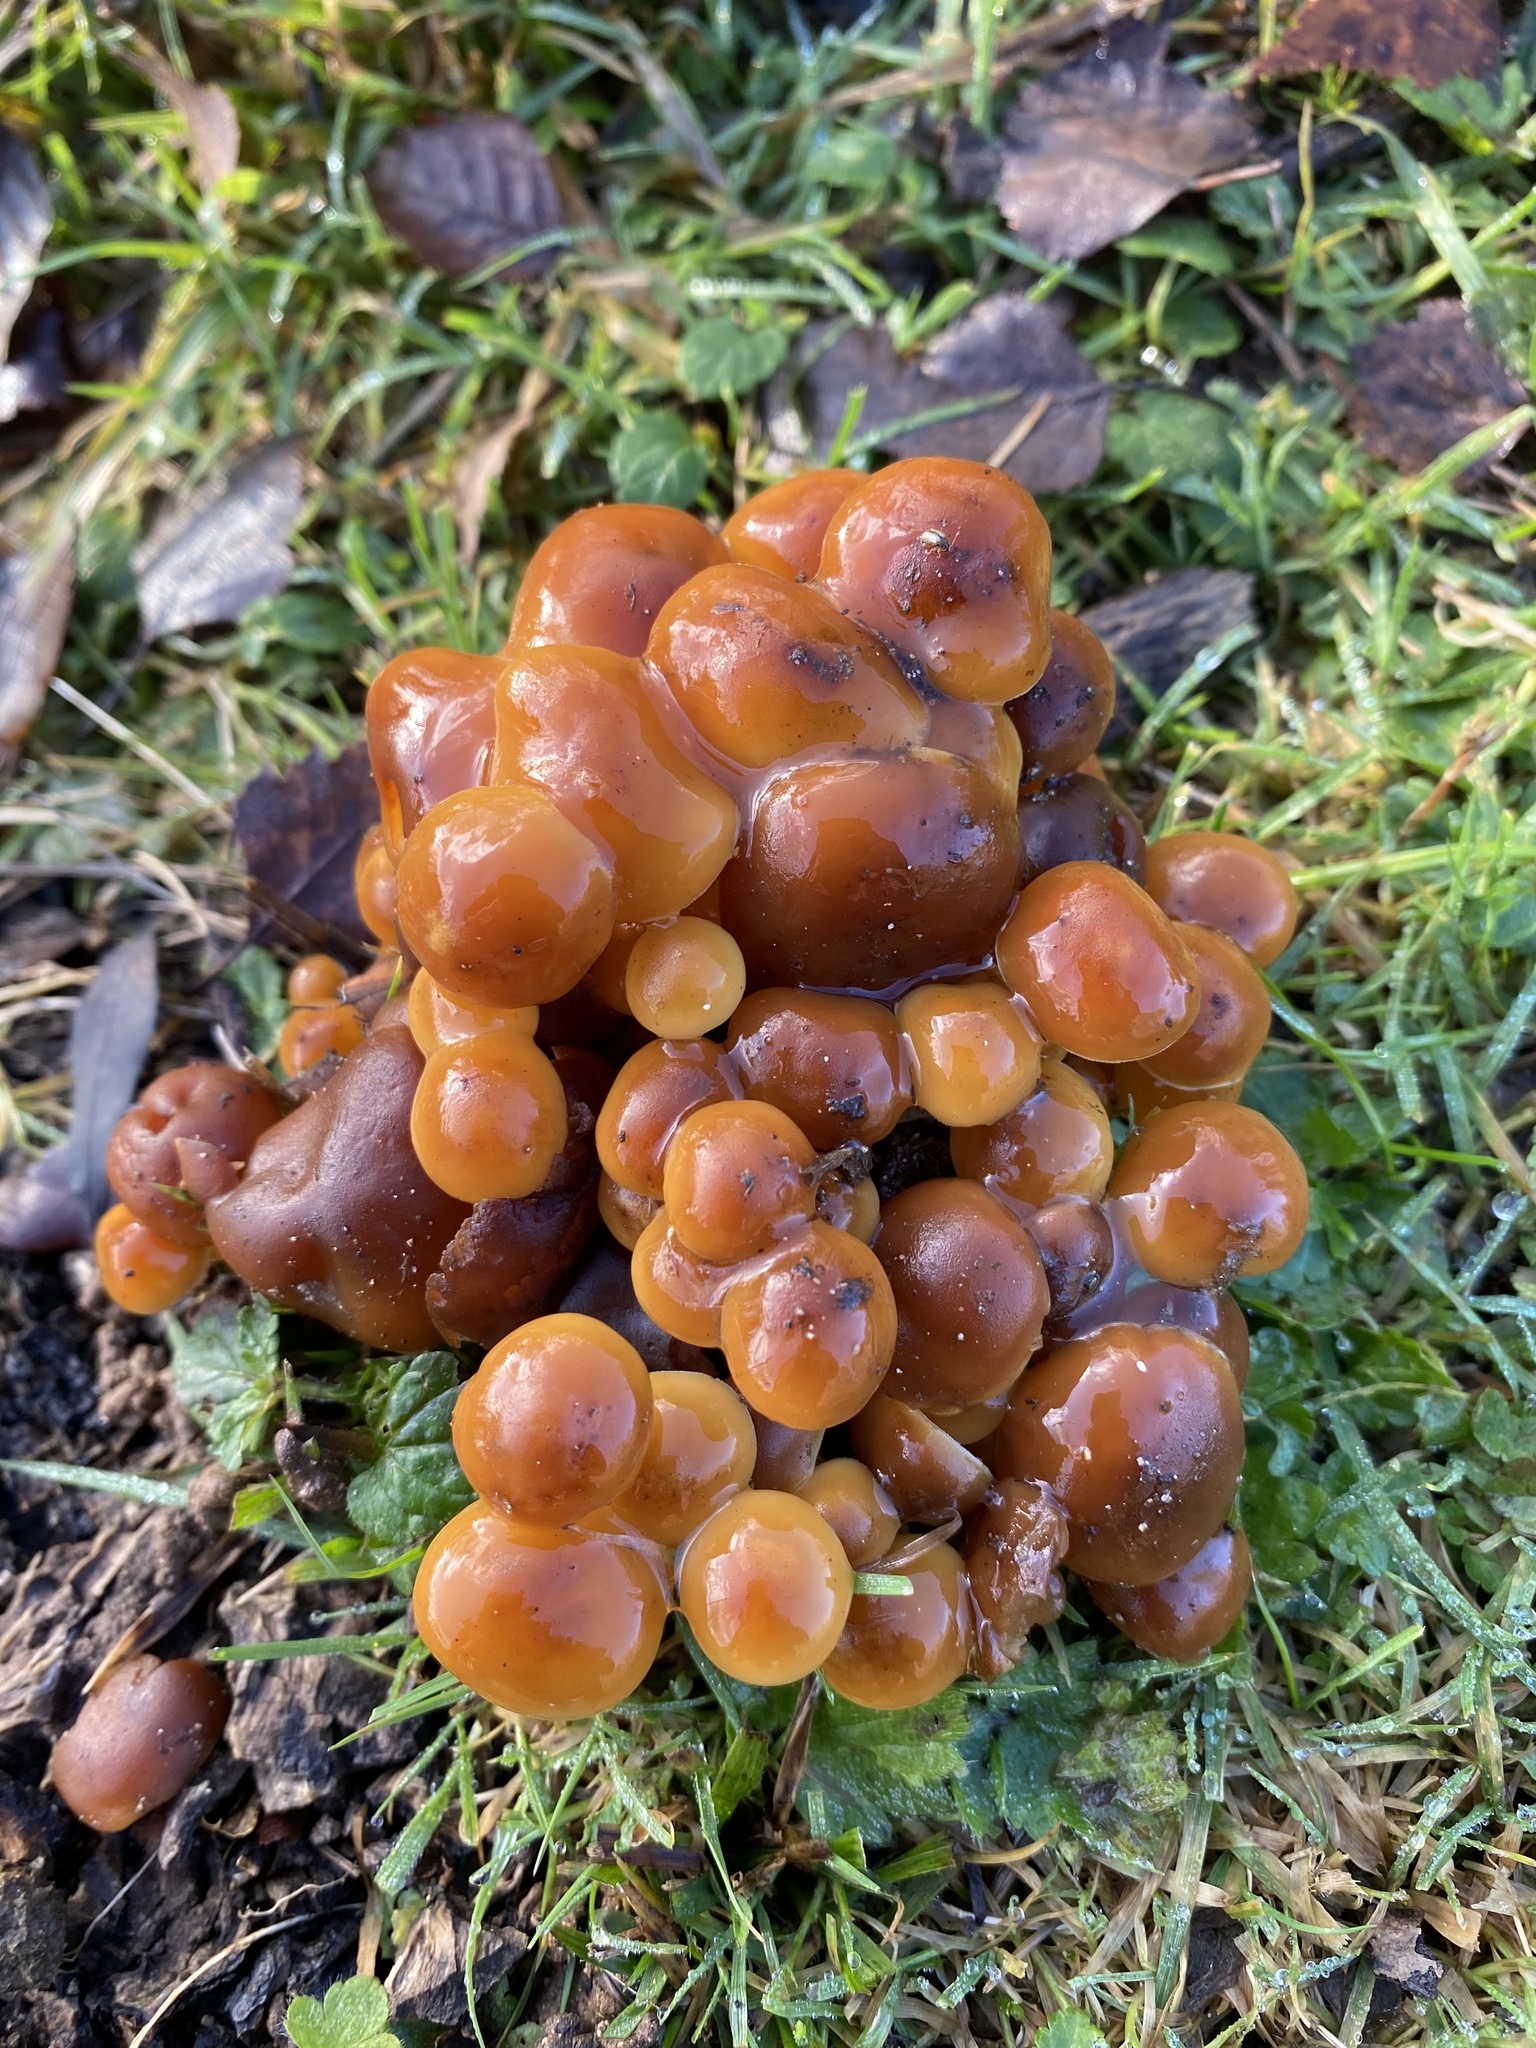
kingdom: Fungi
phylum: Basidiomycota
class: Agaricomycetes
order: Agaricales
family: Physalacriaceae
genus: Flammulina
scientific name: Flammulina
